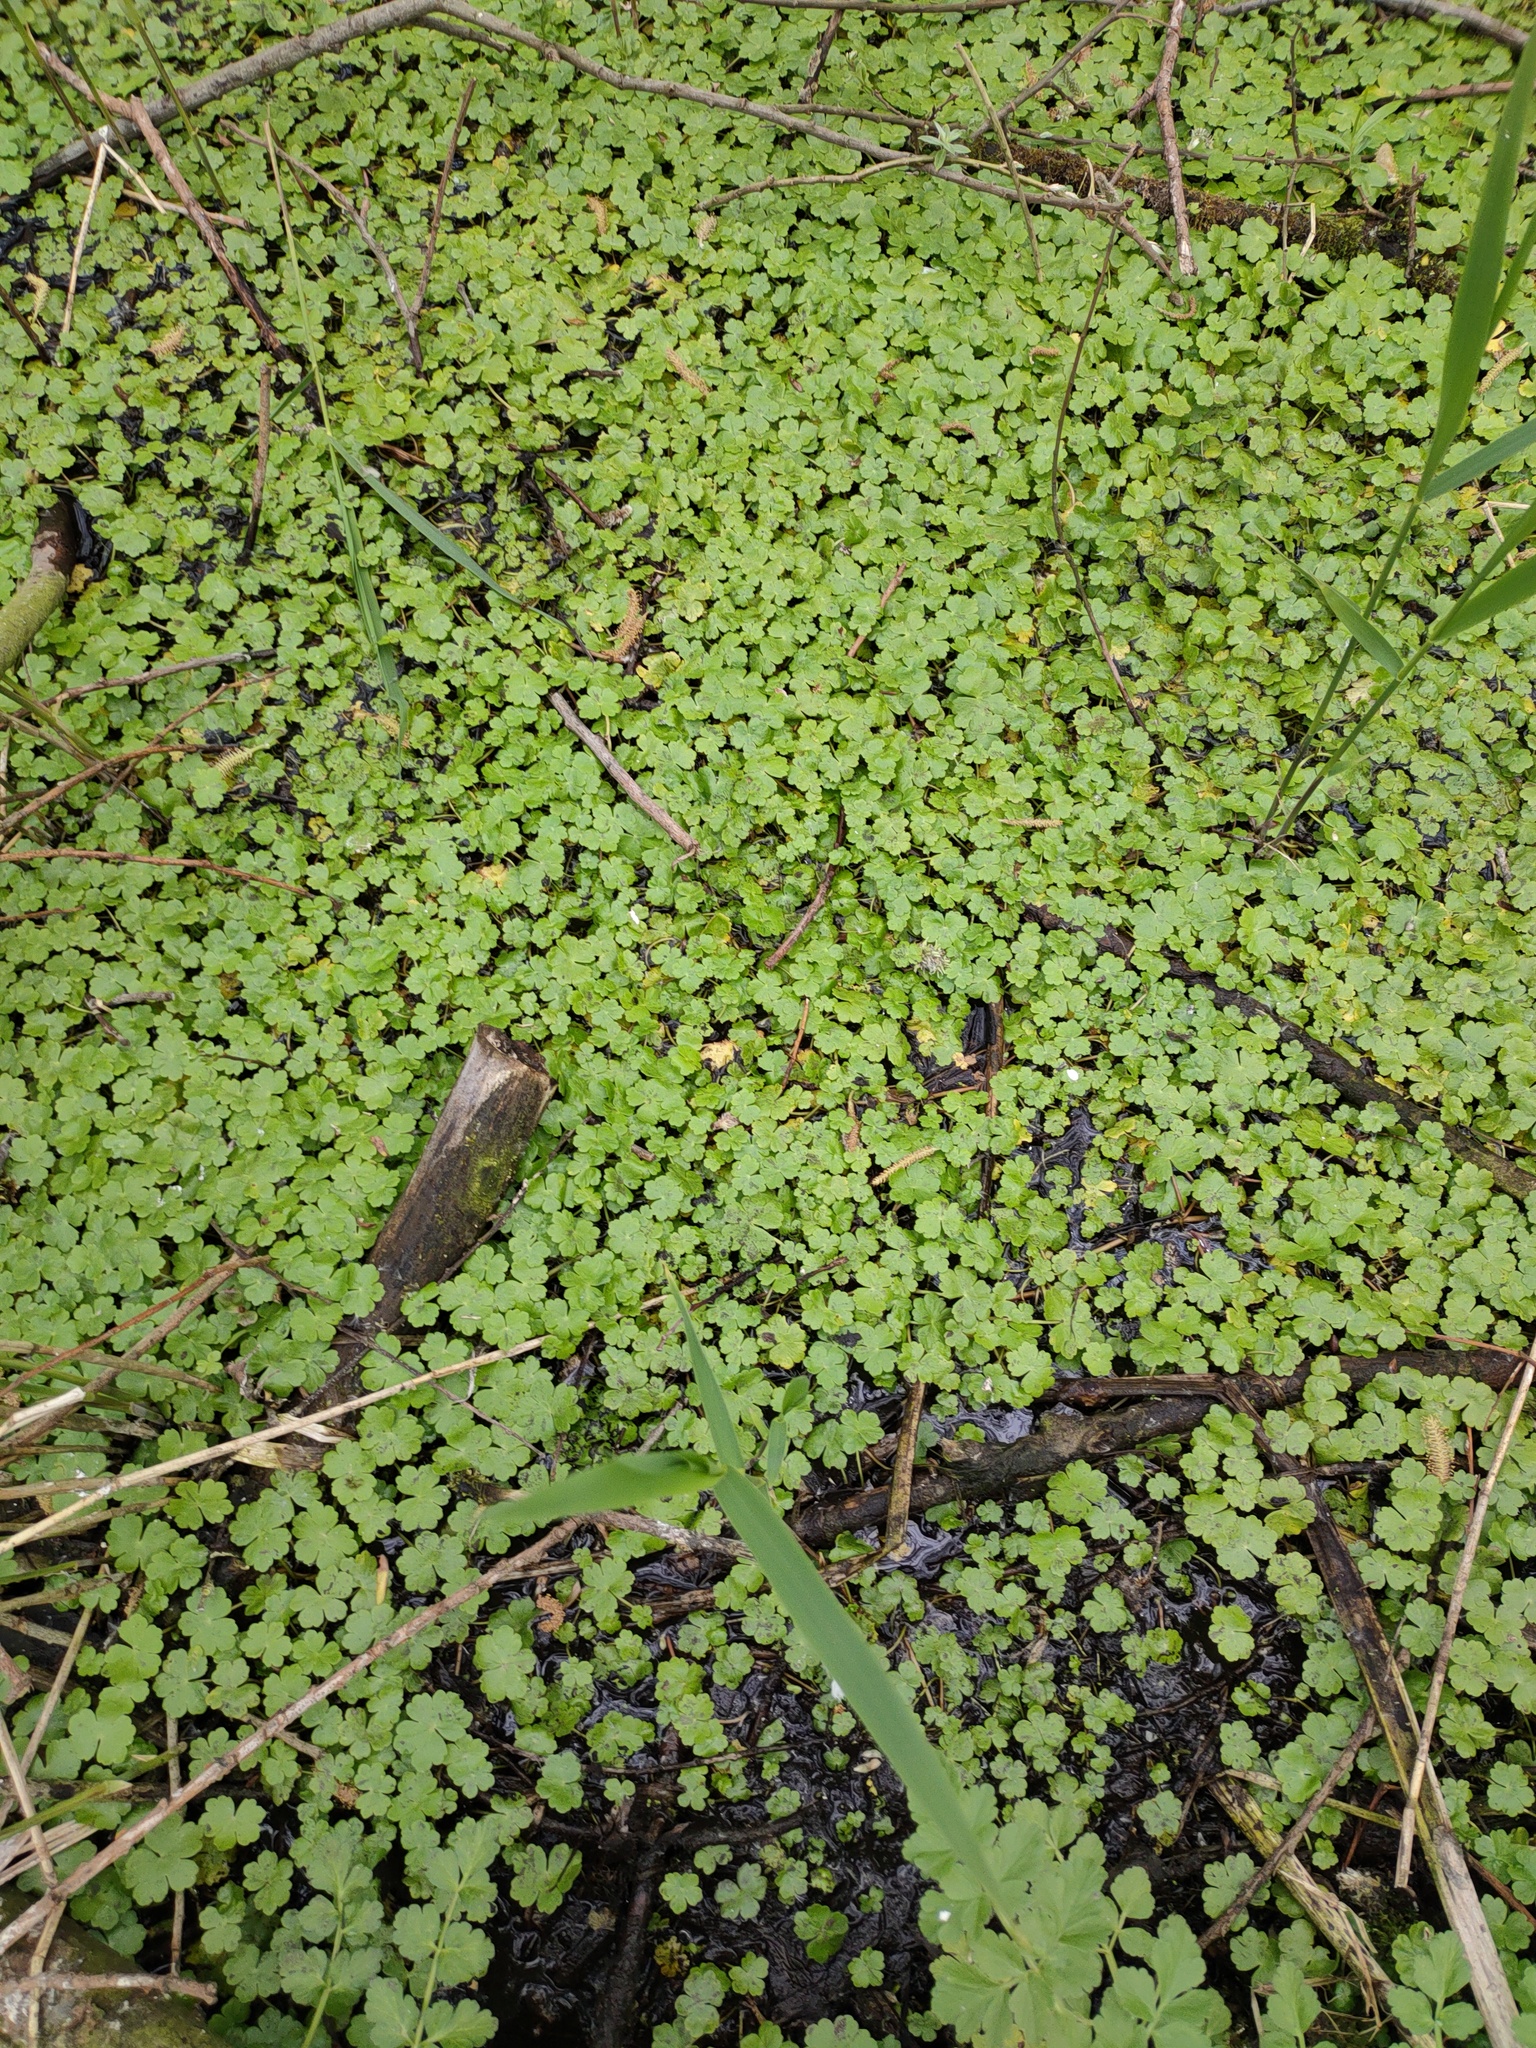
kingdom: Plantae
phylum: Tracheophyta
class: Magnoliopsida
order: Apiales
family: Araliaceae
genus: Hydrocotyle
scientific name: Hydrocotyle ranunculoides
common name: Floating pennywort
